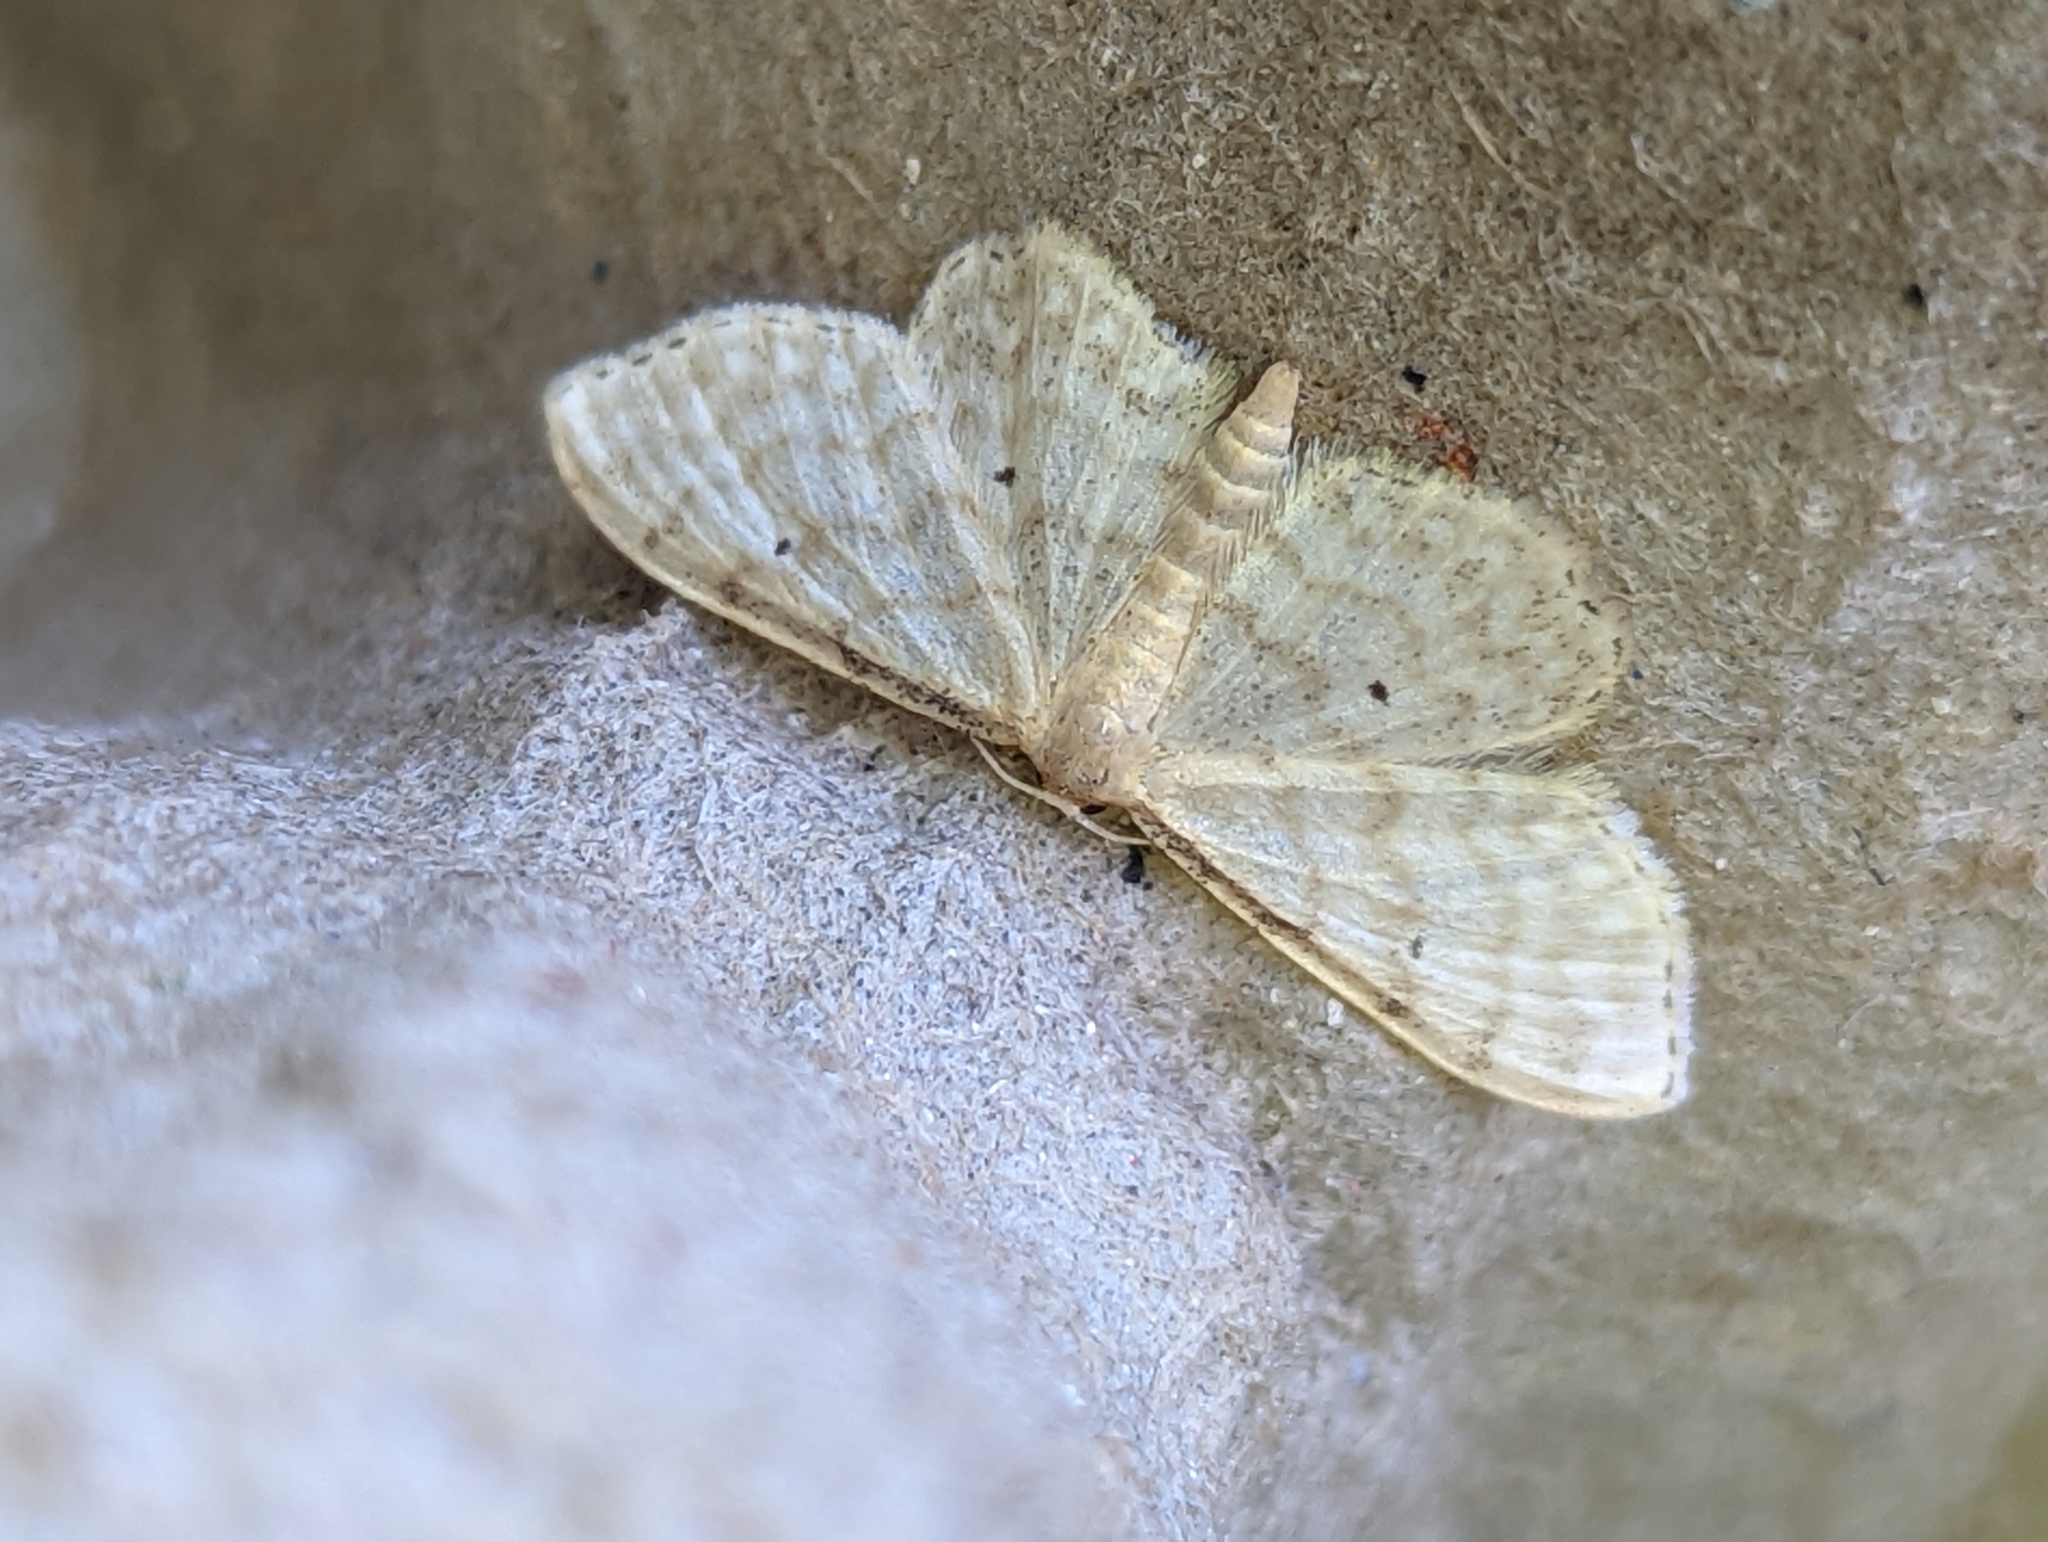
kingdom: Animalia
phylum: Arthropoda
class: Insecta
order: Lepidoptera
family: Geometridae
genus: Idaea
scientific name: Idaea fuscovenosa
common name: Dwarf cream wave
